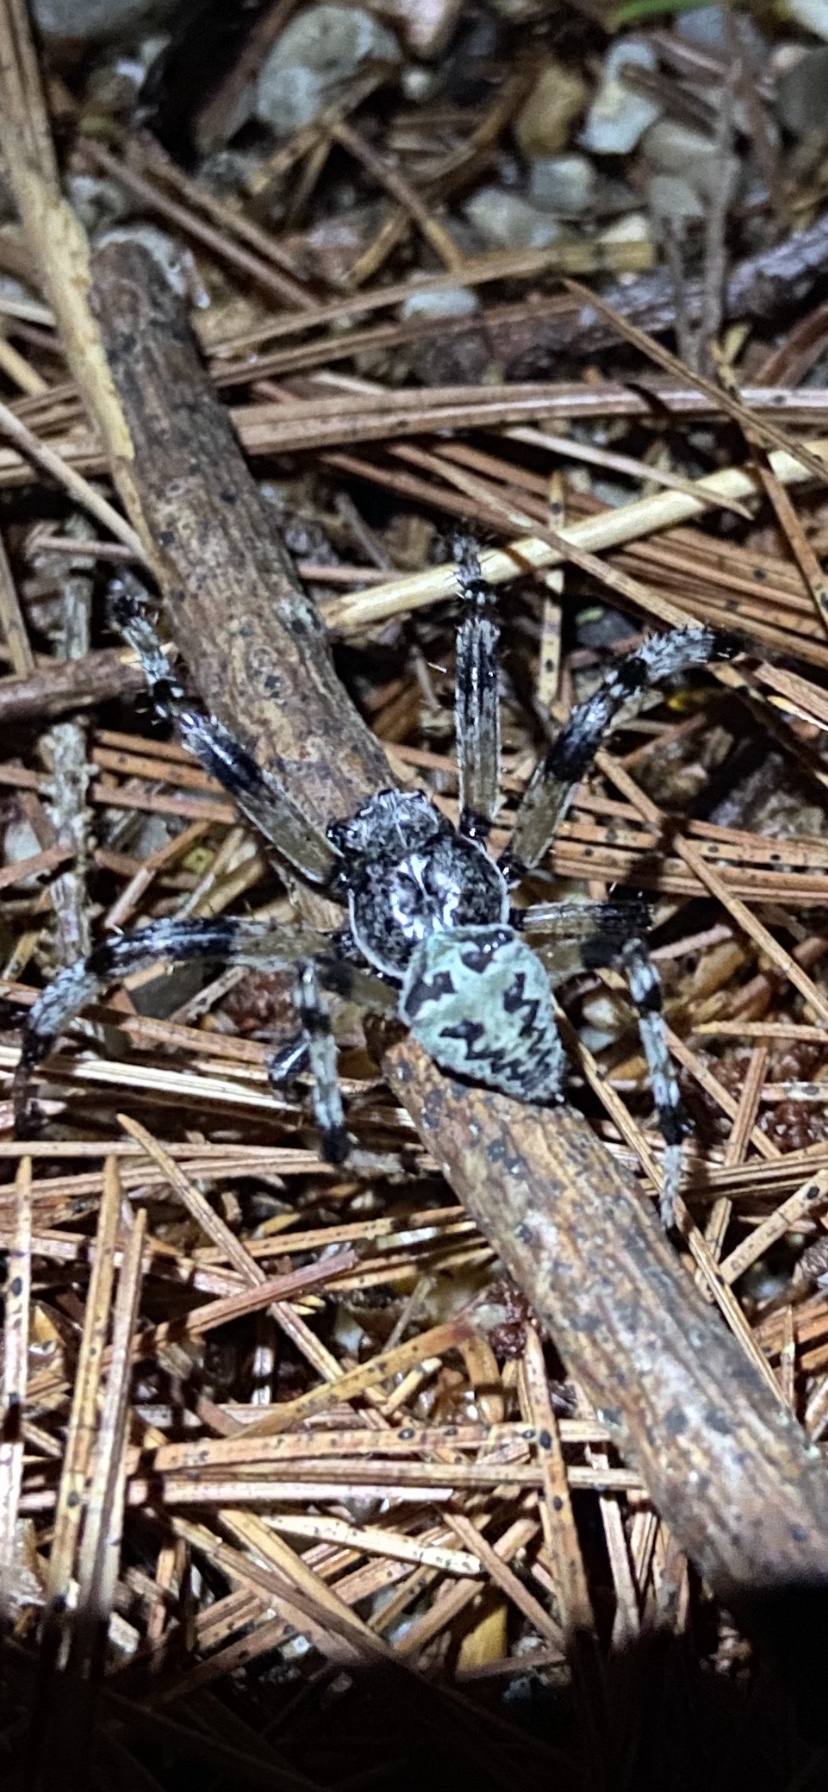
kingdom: Animalia
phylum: Arthropoda
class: Arachnida
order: Araneae
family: Araneidae
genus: Araneus
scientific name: Araneus bicentenarius
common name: Giant lichen orbweaver
